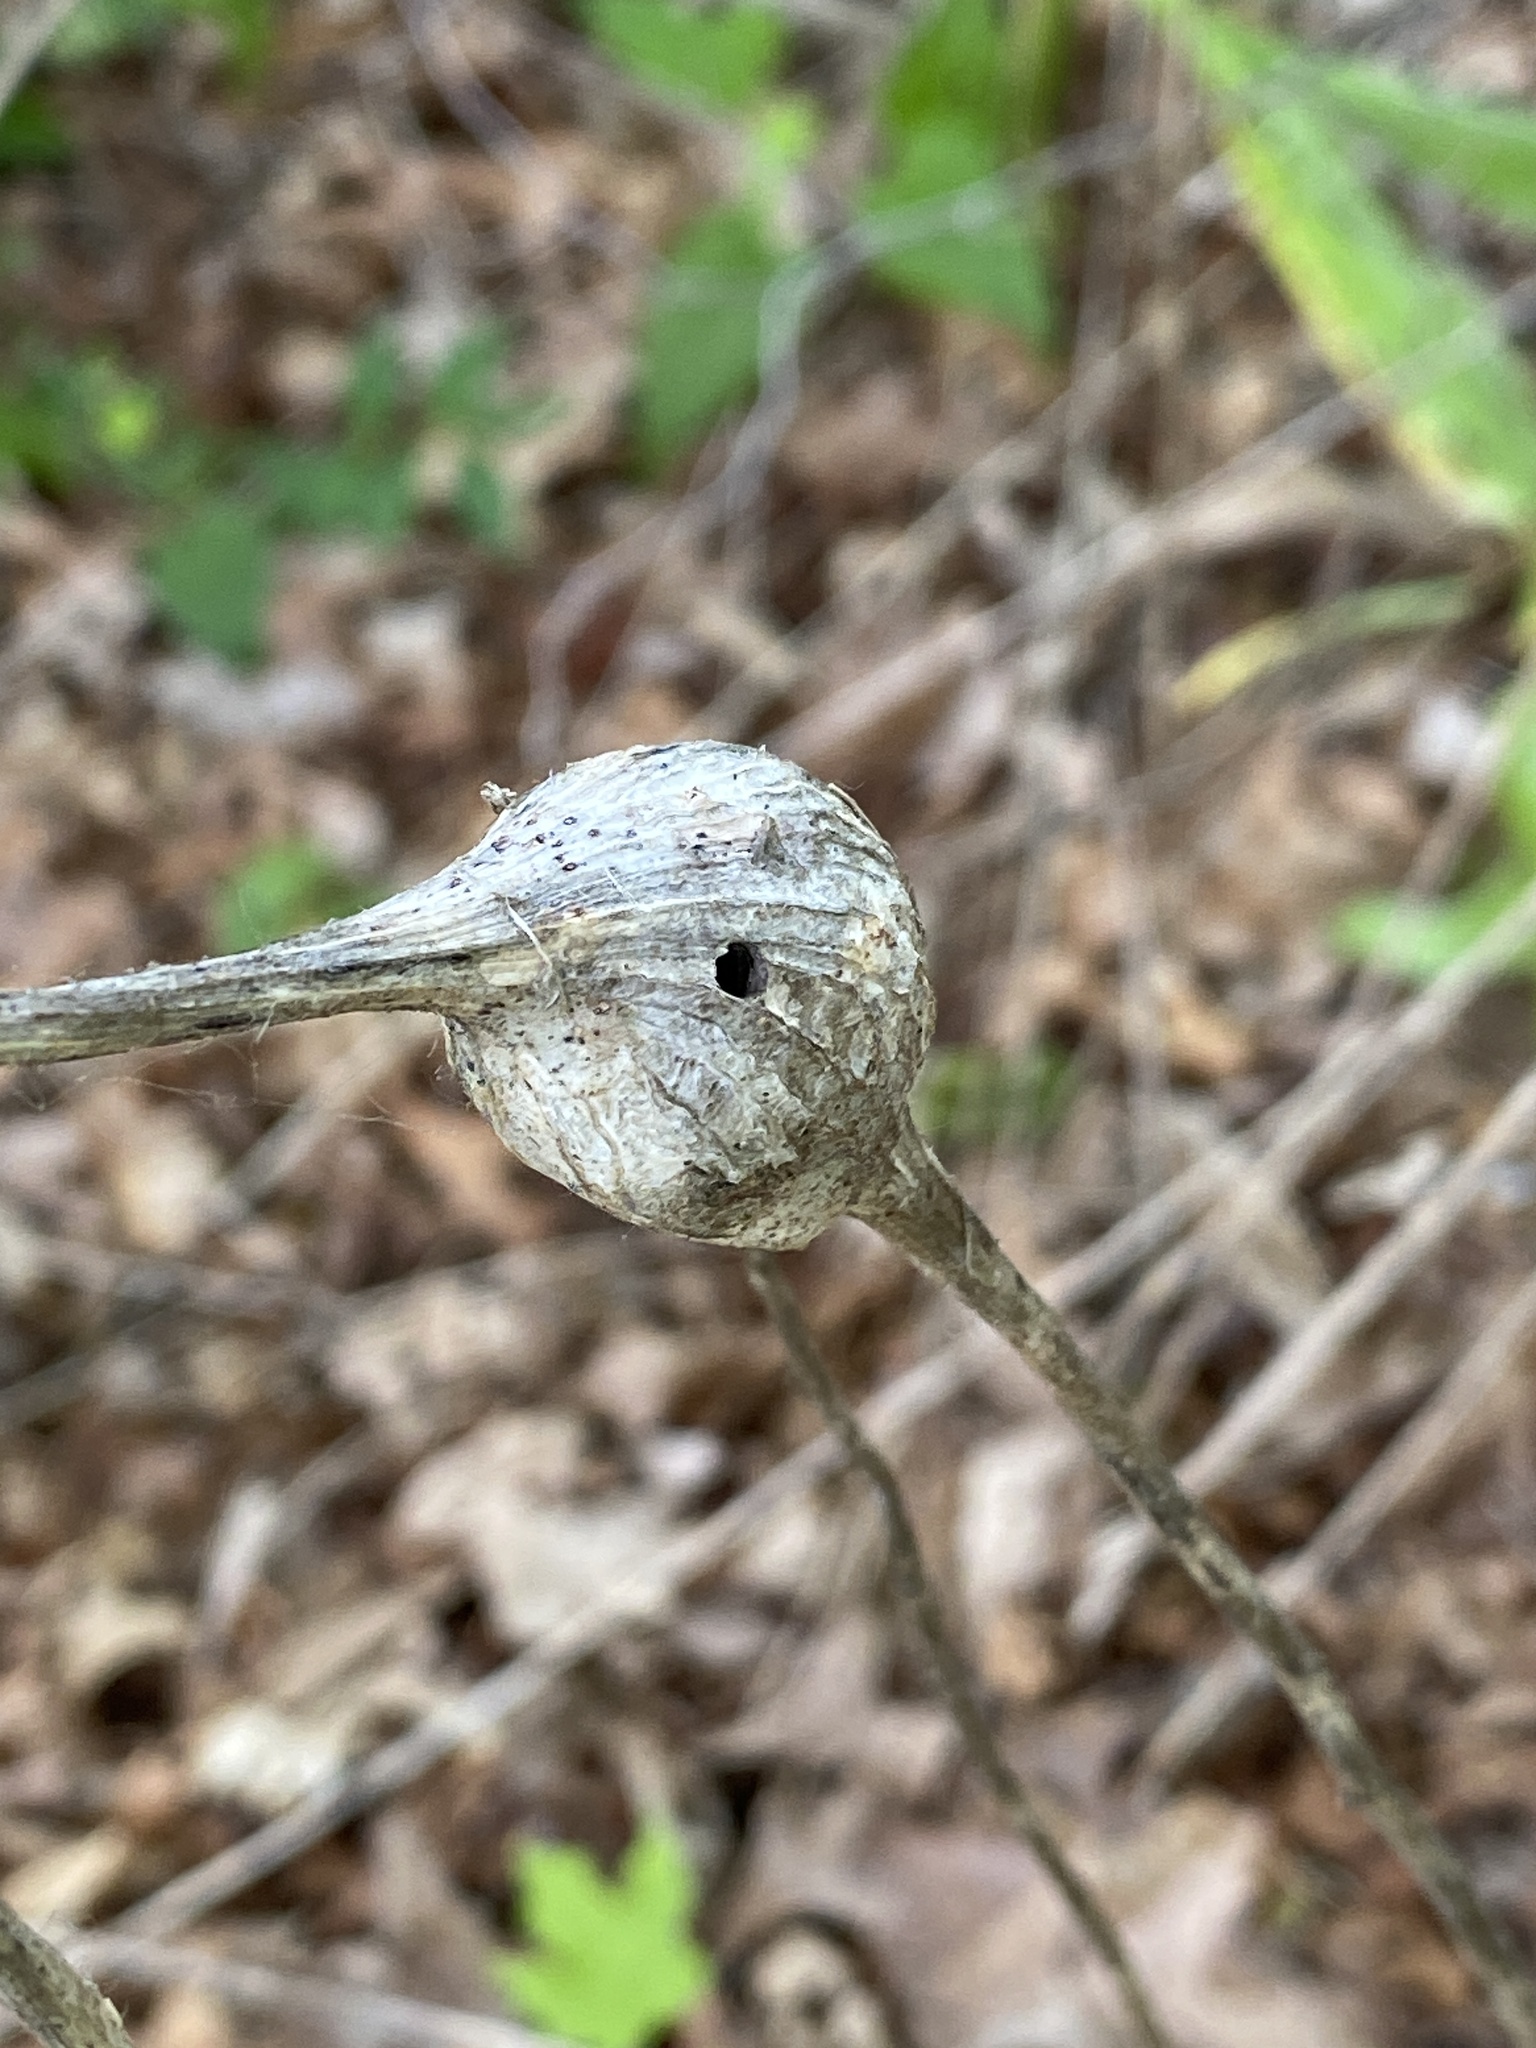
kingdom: Animalia
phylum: Arthropoda
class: Insecta
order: Diptera
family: Tephritidae
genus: Eurosta
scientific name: Eurosta solidaginis
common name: Goldenrod gall fly
